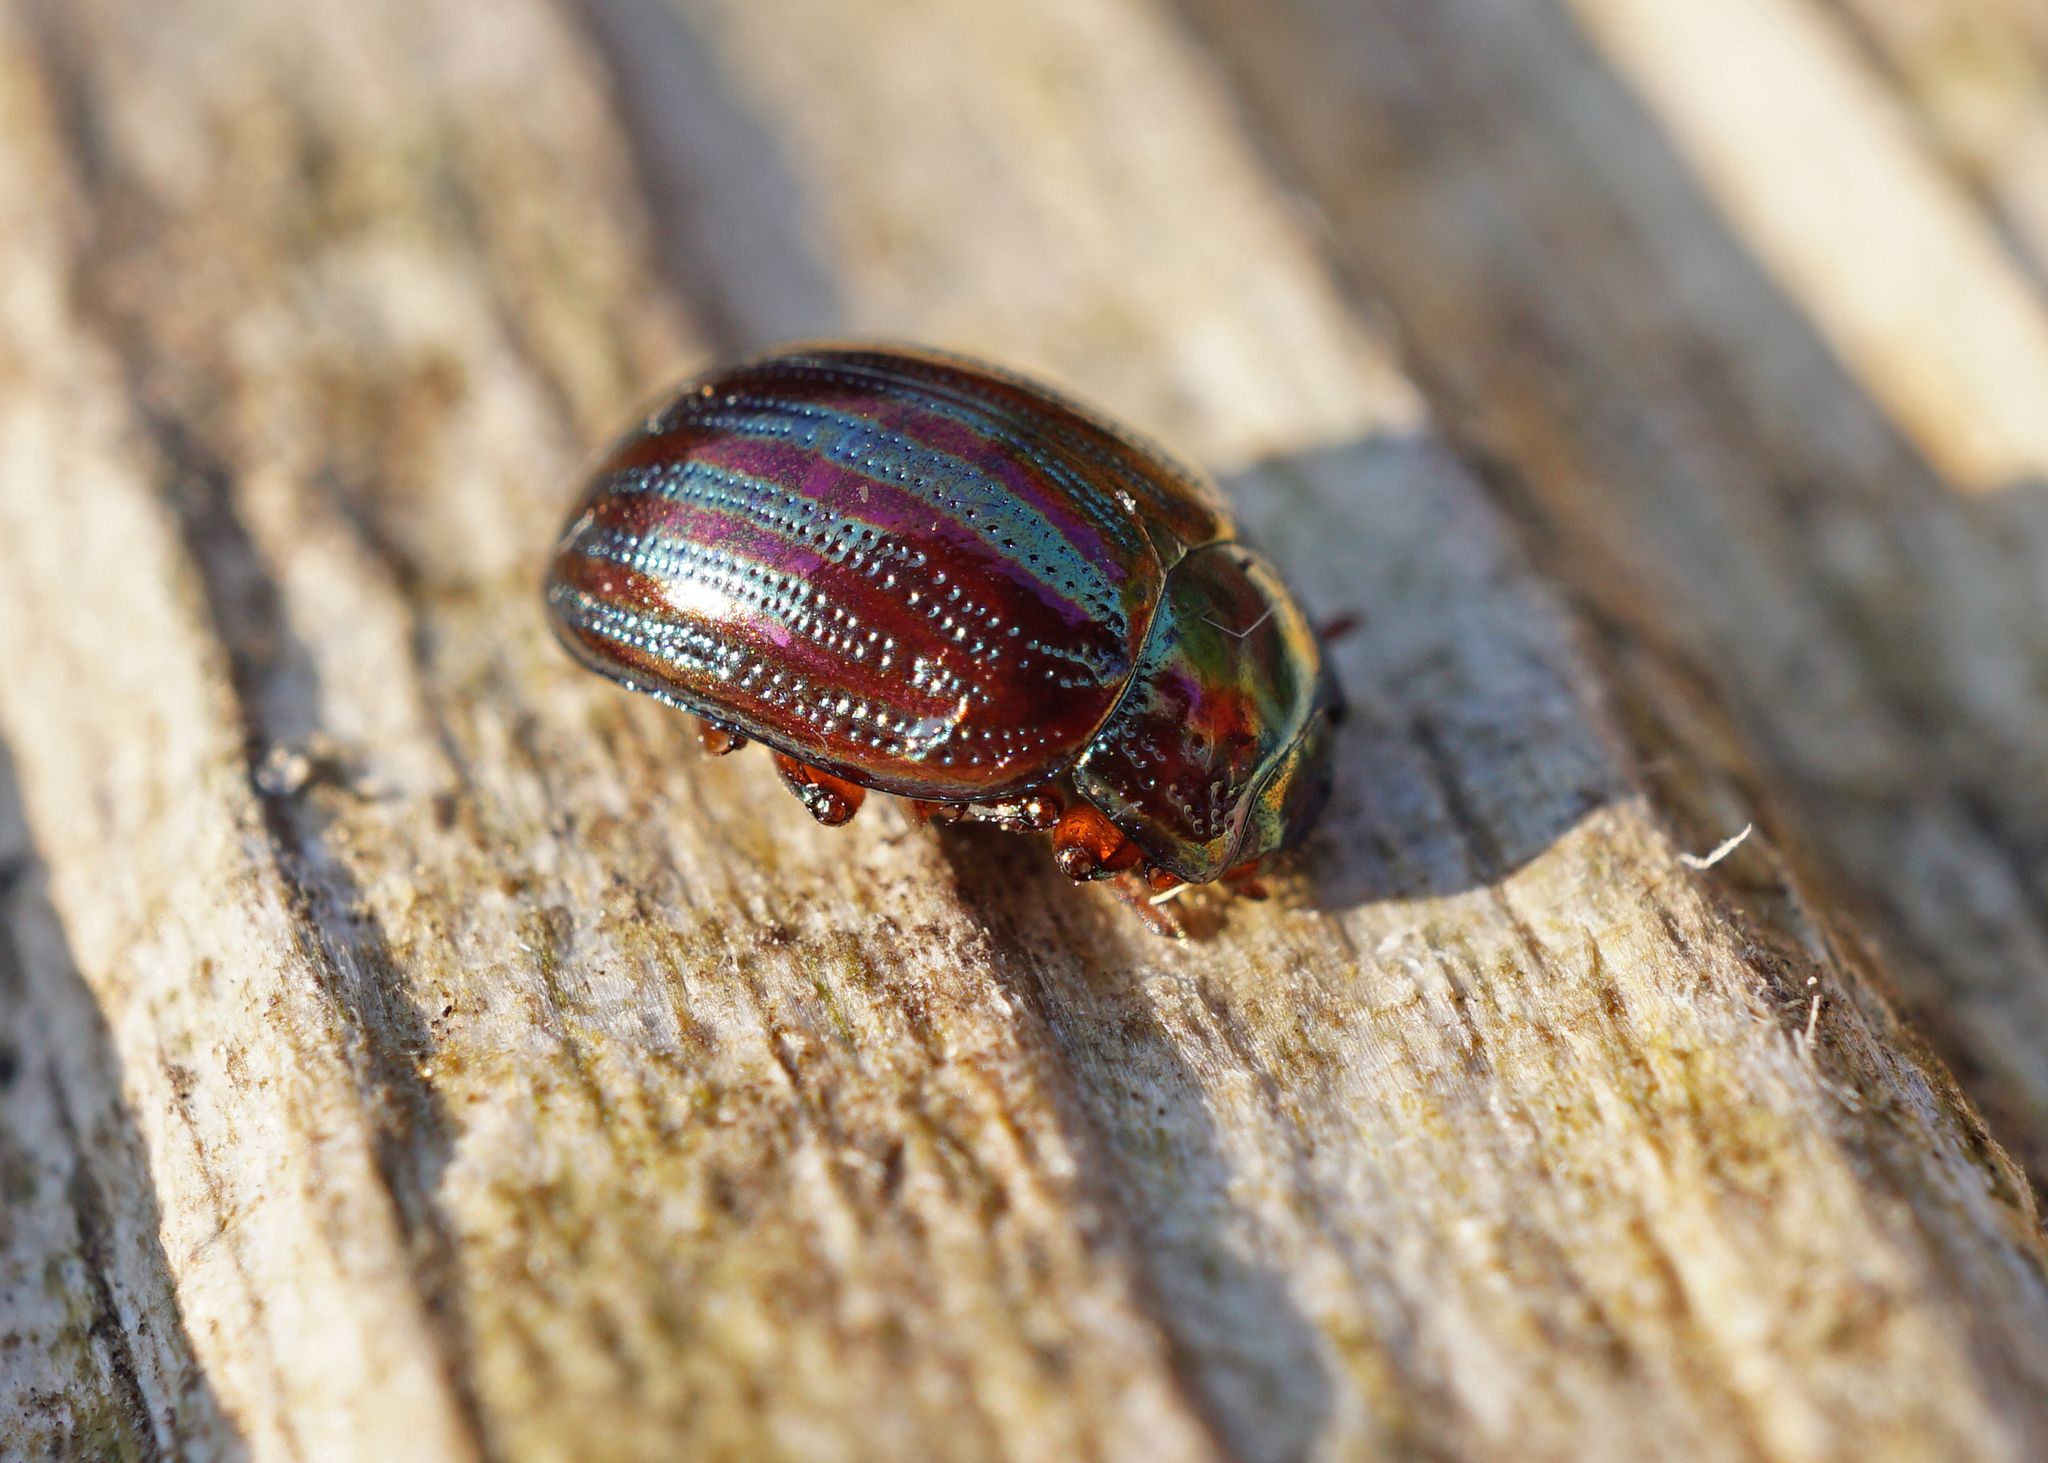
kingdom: Animalia
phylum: Arthropoda
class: Insecta
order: Coleoptera
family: Chrysomelidae
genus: Chrysolina
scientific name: Chrysolina americana
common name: Rosemary beetle
